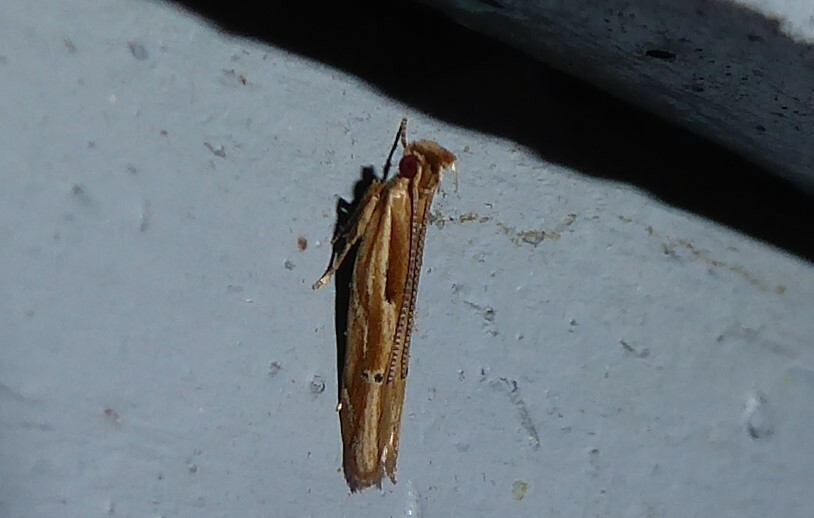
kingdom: Animalia
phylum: Arthropoda
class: Insecta
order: Lepidoptera
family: Depressariidae
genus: Eutorna
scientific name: Eutorna symmorpha
